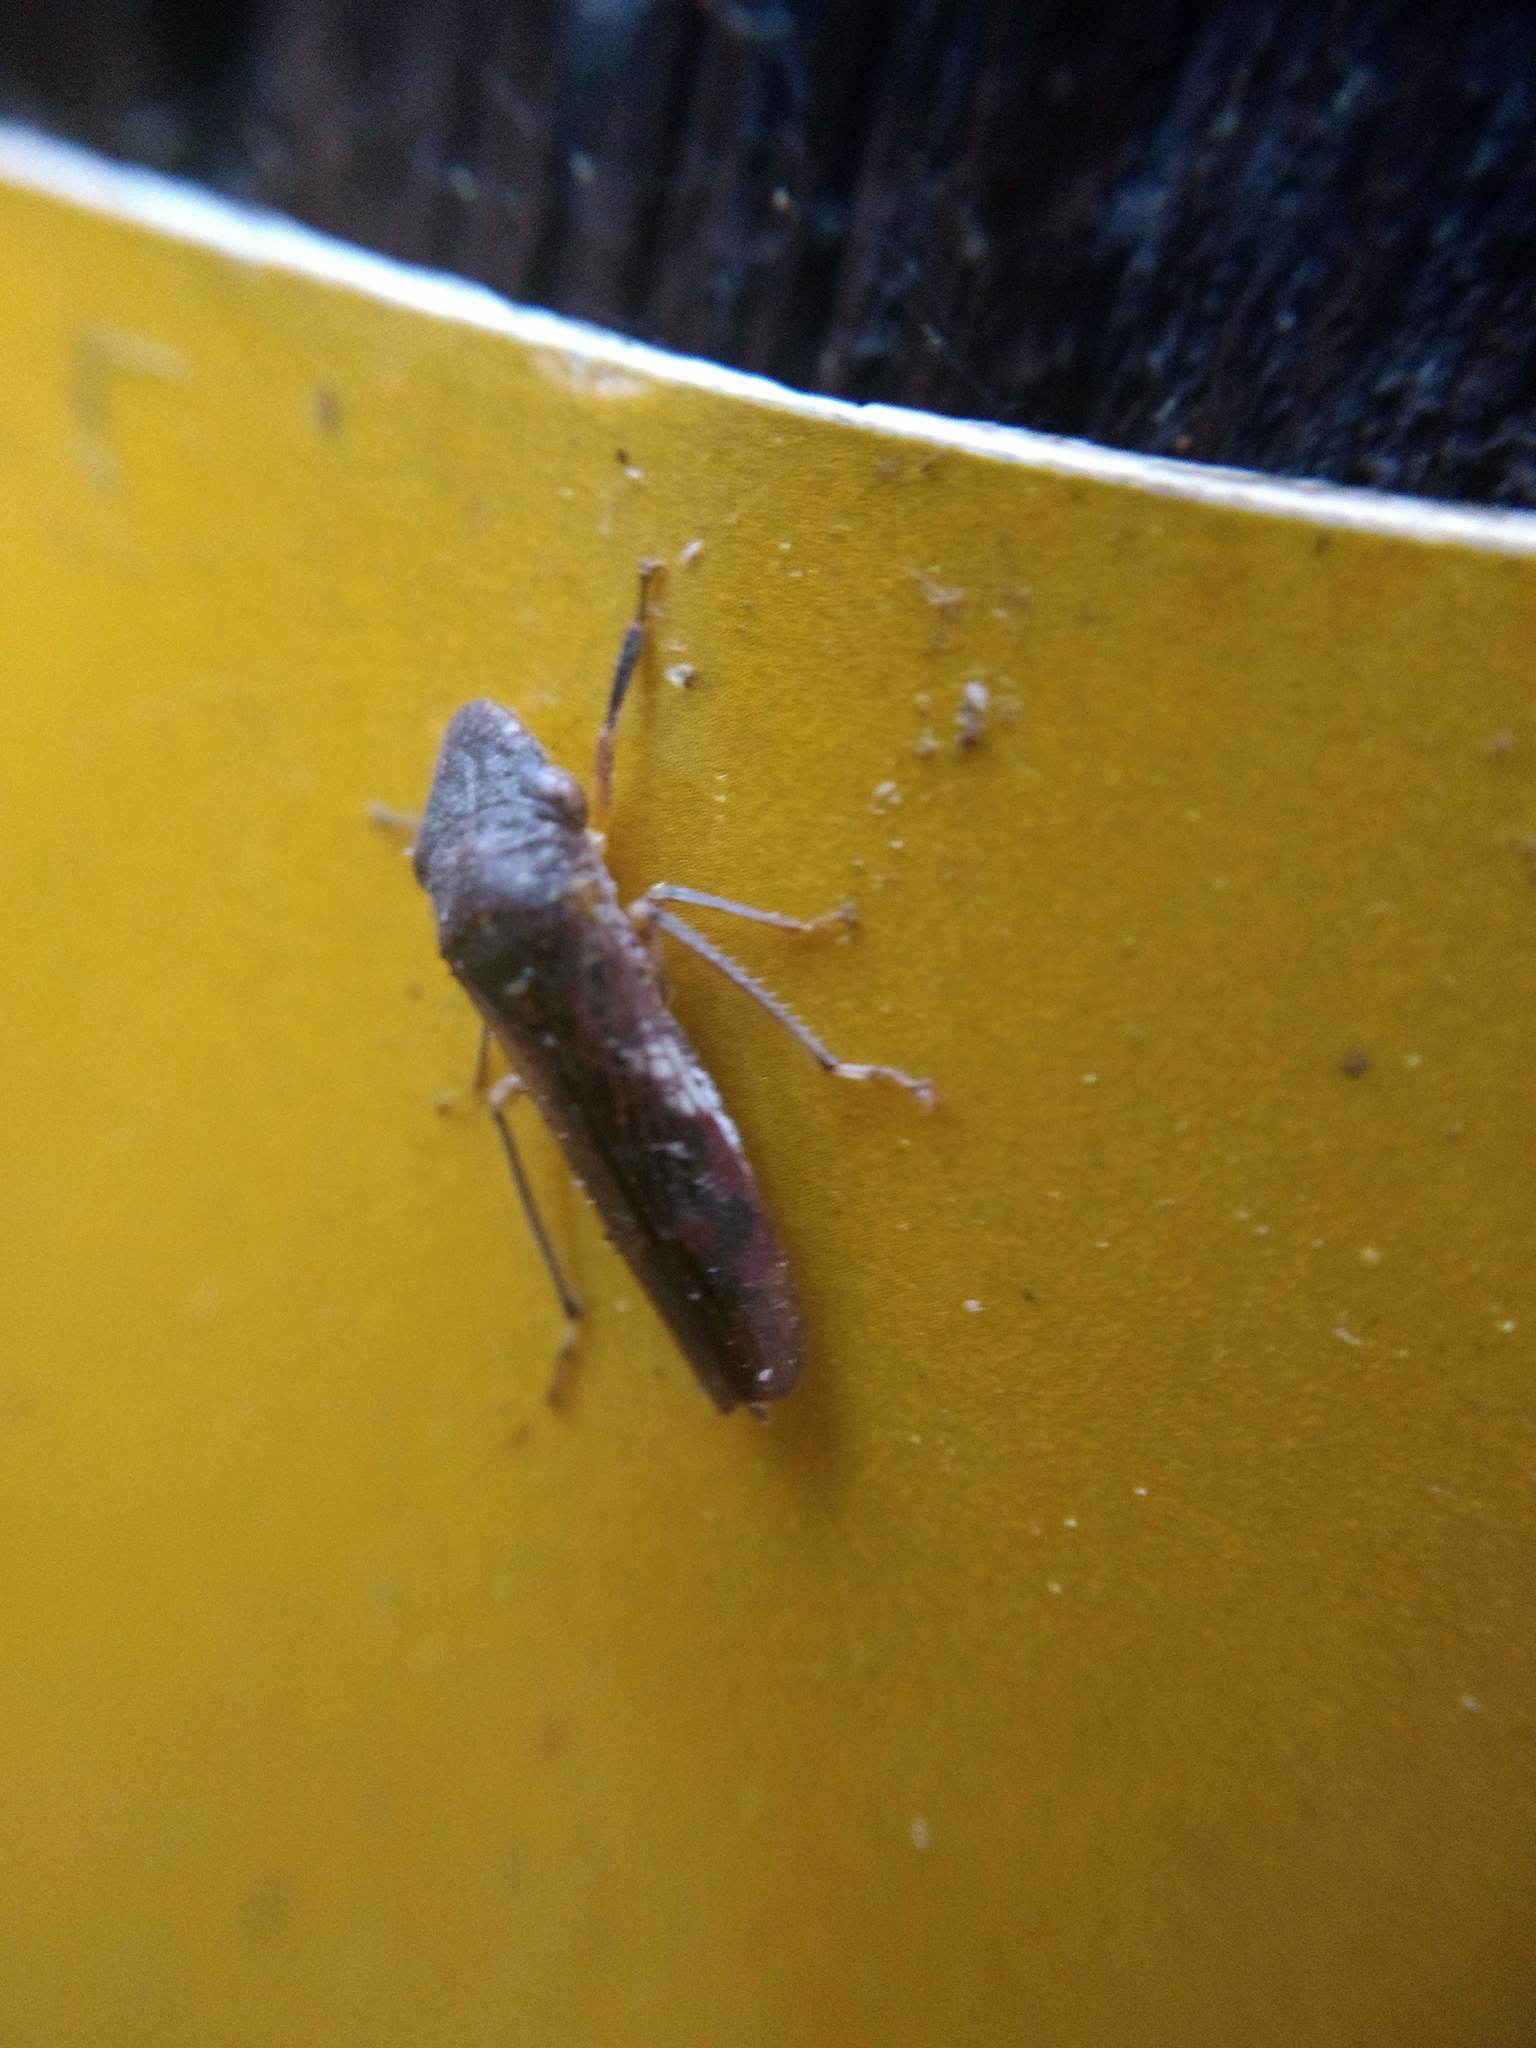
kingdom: Animalia
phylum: Arthropoda
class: Insecta
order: Hemiptera
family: Cicadellidae
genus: Homalodisca
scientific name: Homalodisca vitripennis
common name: Glassy-winged sharpshooter
